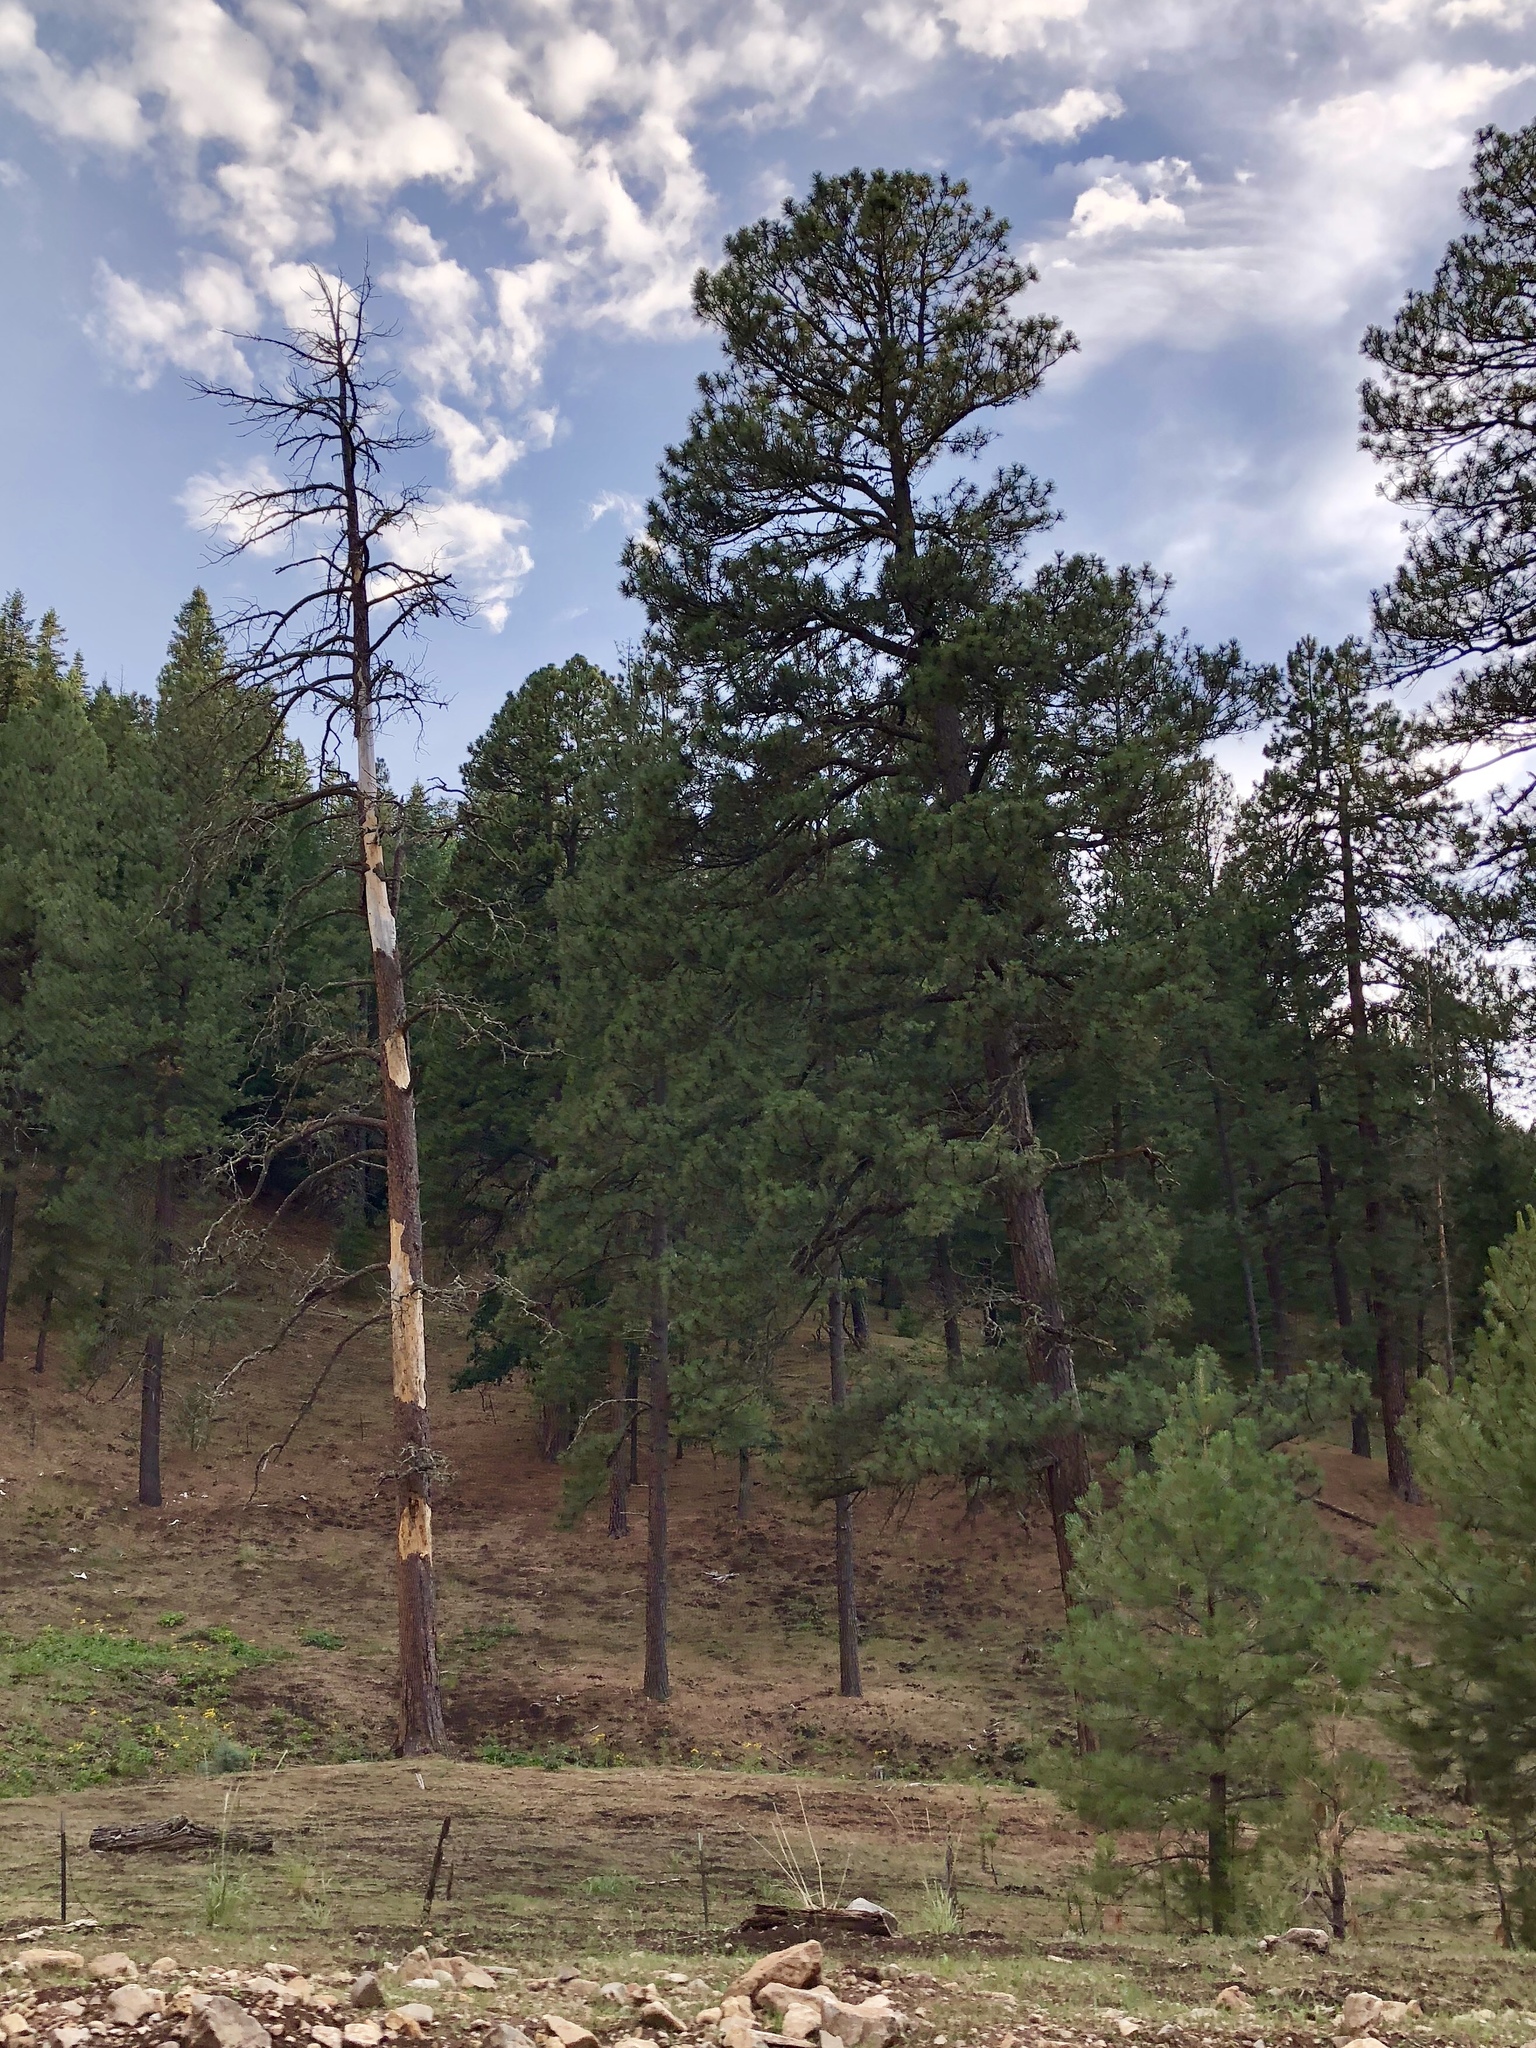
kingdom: Plantae
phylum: Tracheophyta
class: Pinopsida
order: Pinales
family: Pinaceae
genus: Pinus
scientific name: Pinus ponderosa
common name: Western yellow-pine
